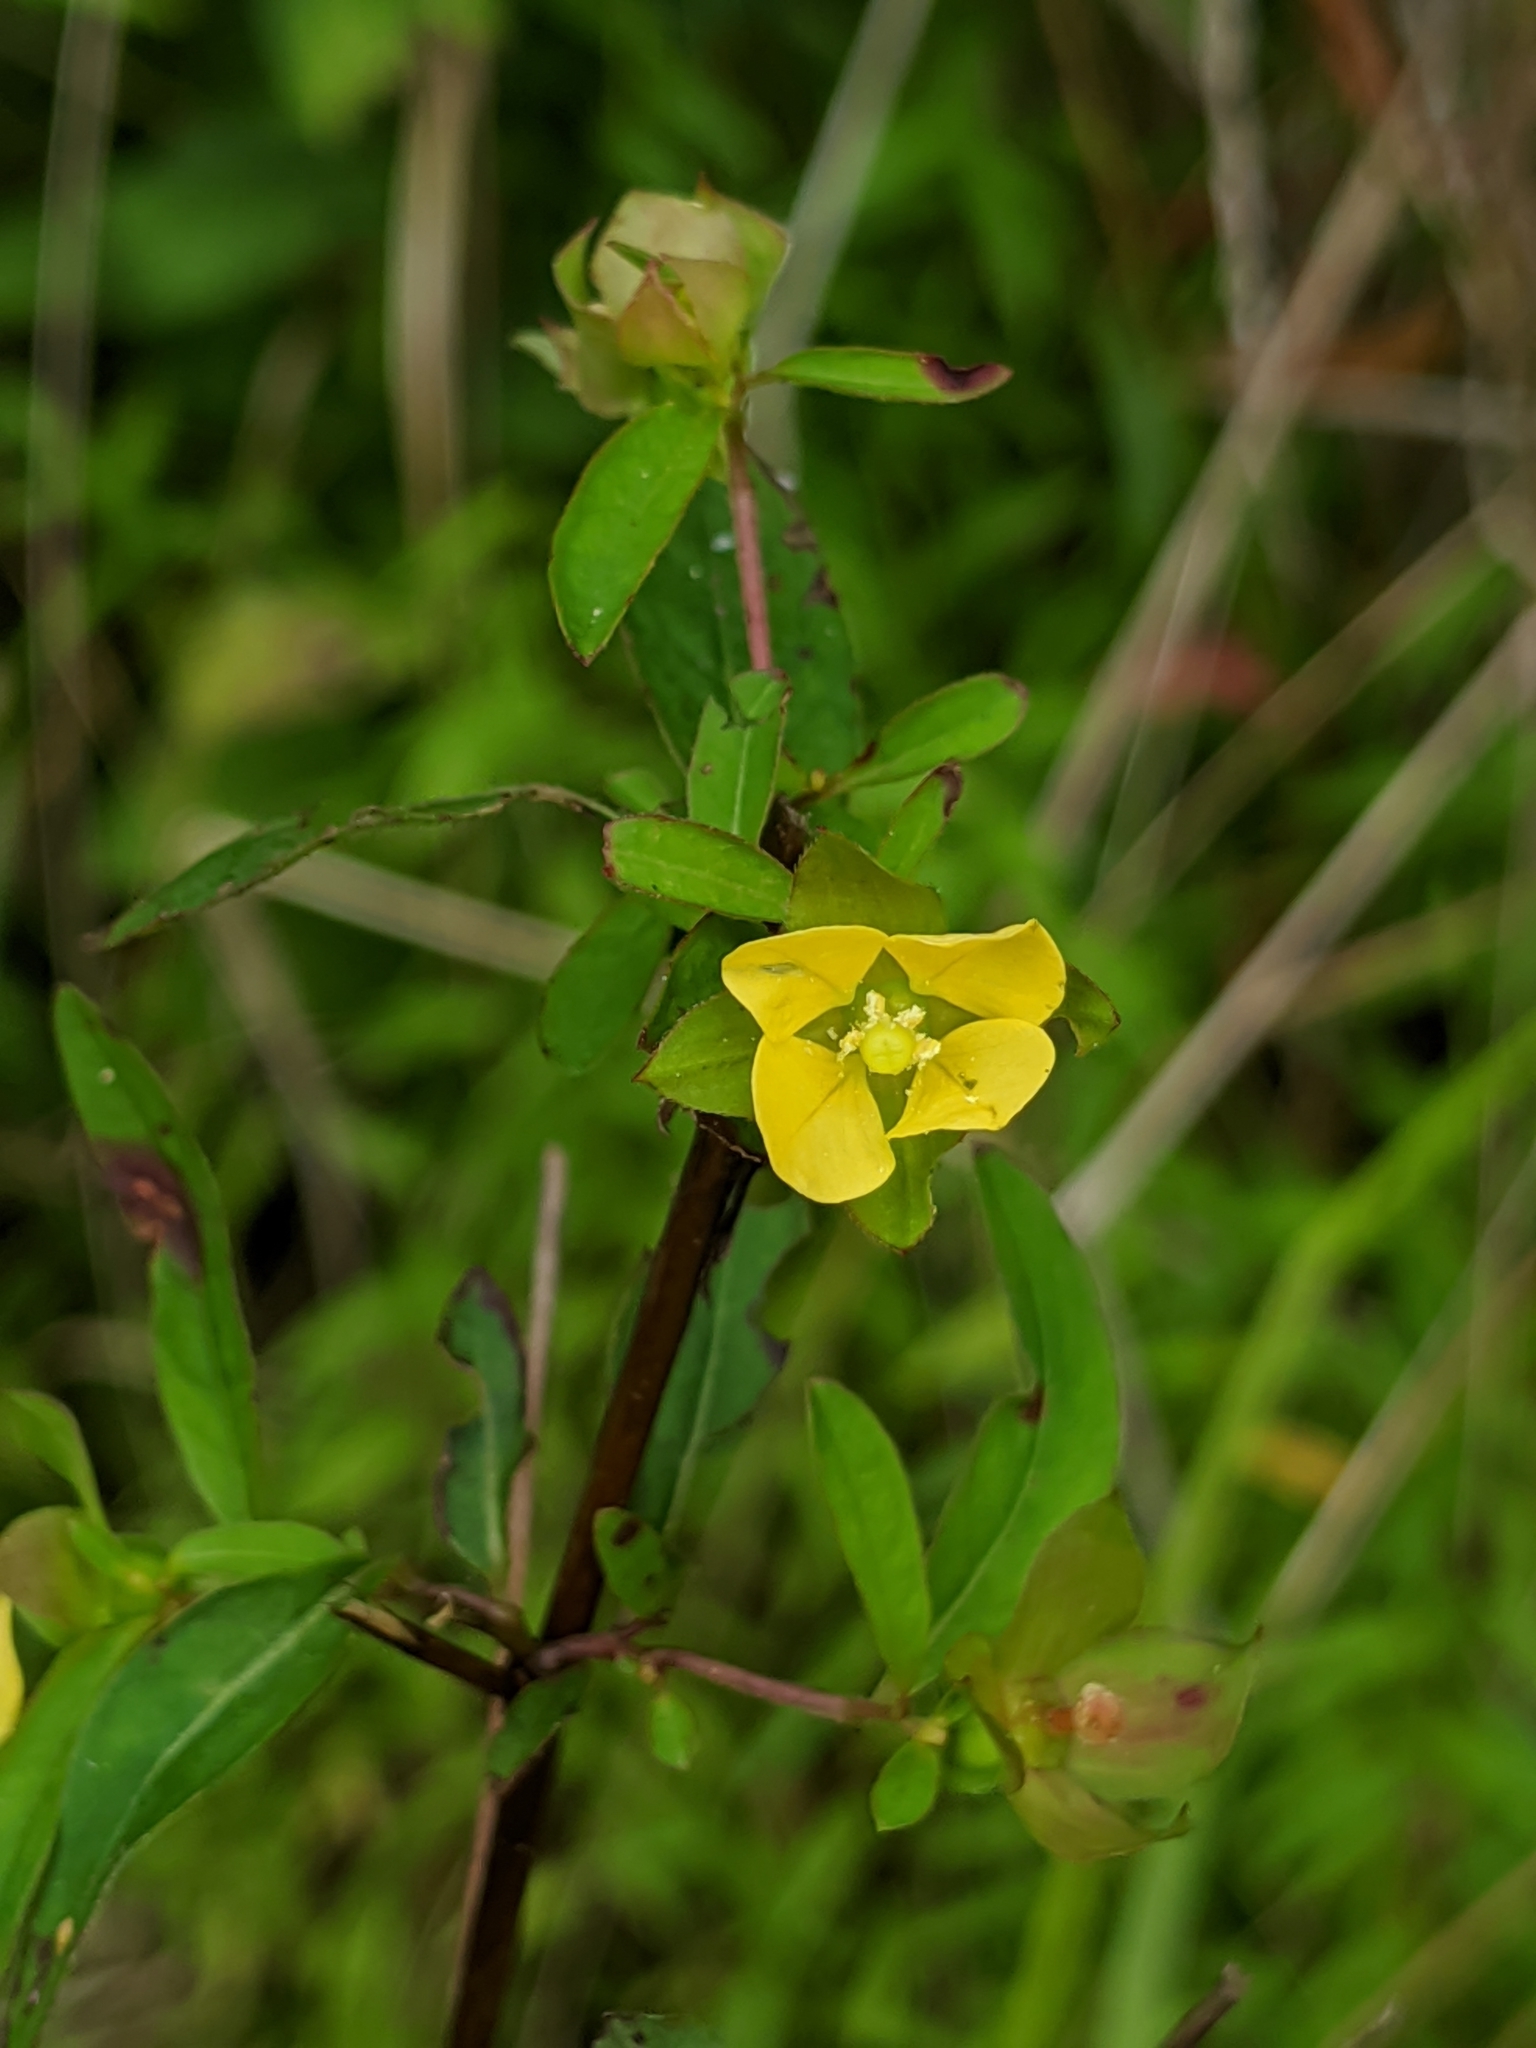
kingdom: Plantae
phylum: Tracheophyta
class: Magnoliopsida
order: Myrtales
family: Onagraceae
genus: Ludwigia
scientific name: Ludwigia alternifolia
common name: Rattlebox
